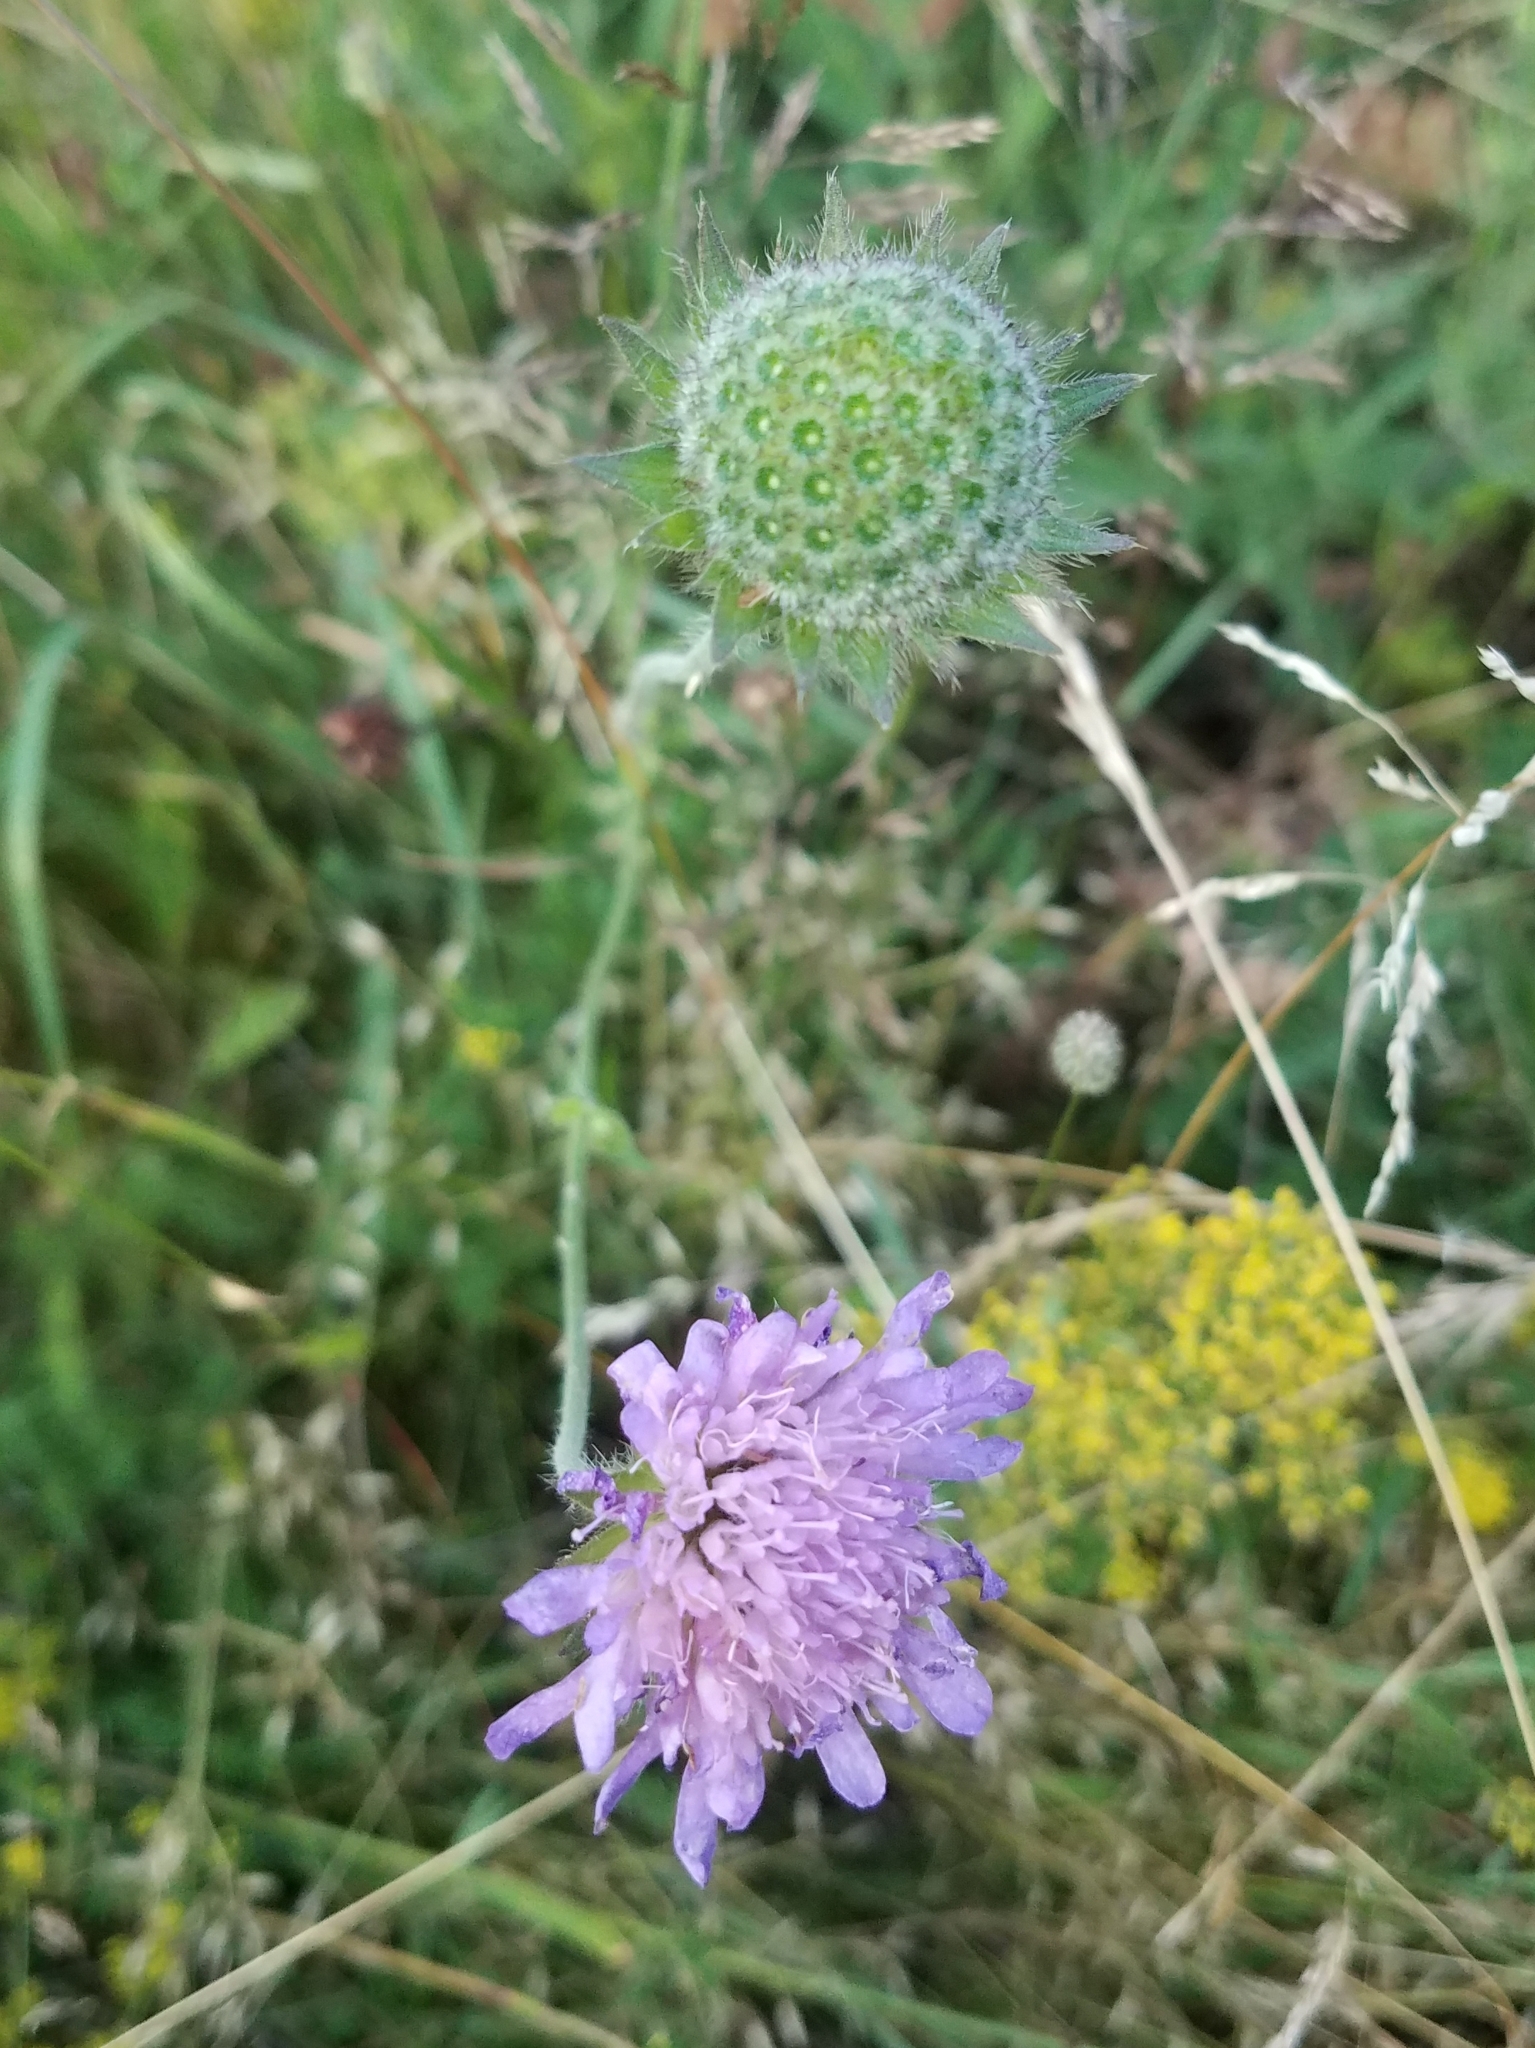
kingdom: Plantae
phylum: Tracheophyta
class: Magnoliopsida
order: Dipsacales
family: Caprifoliaceae
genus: Knautia
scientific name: Knautia arvensis
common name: Field scabiosa
